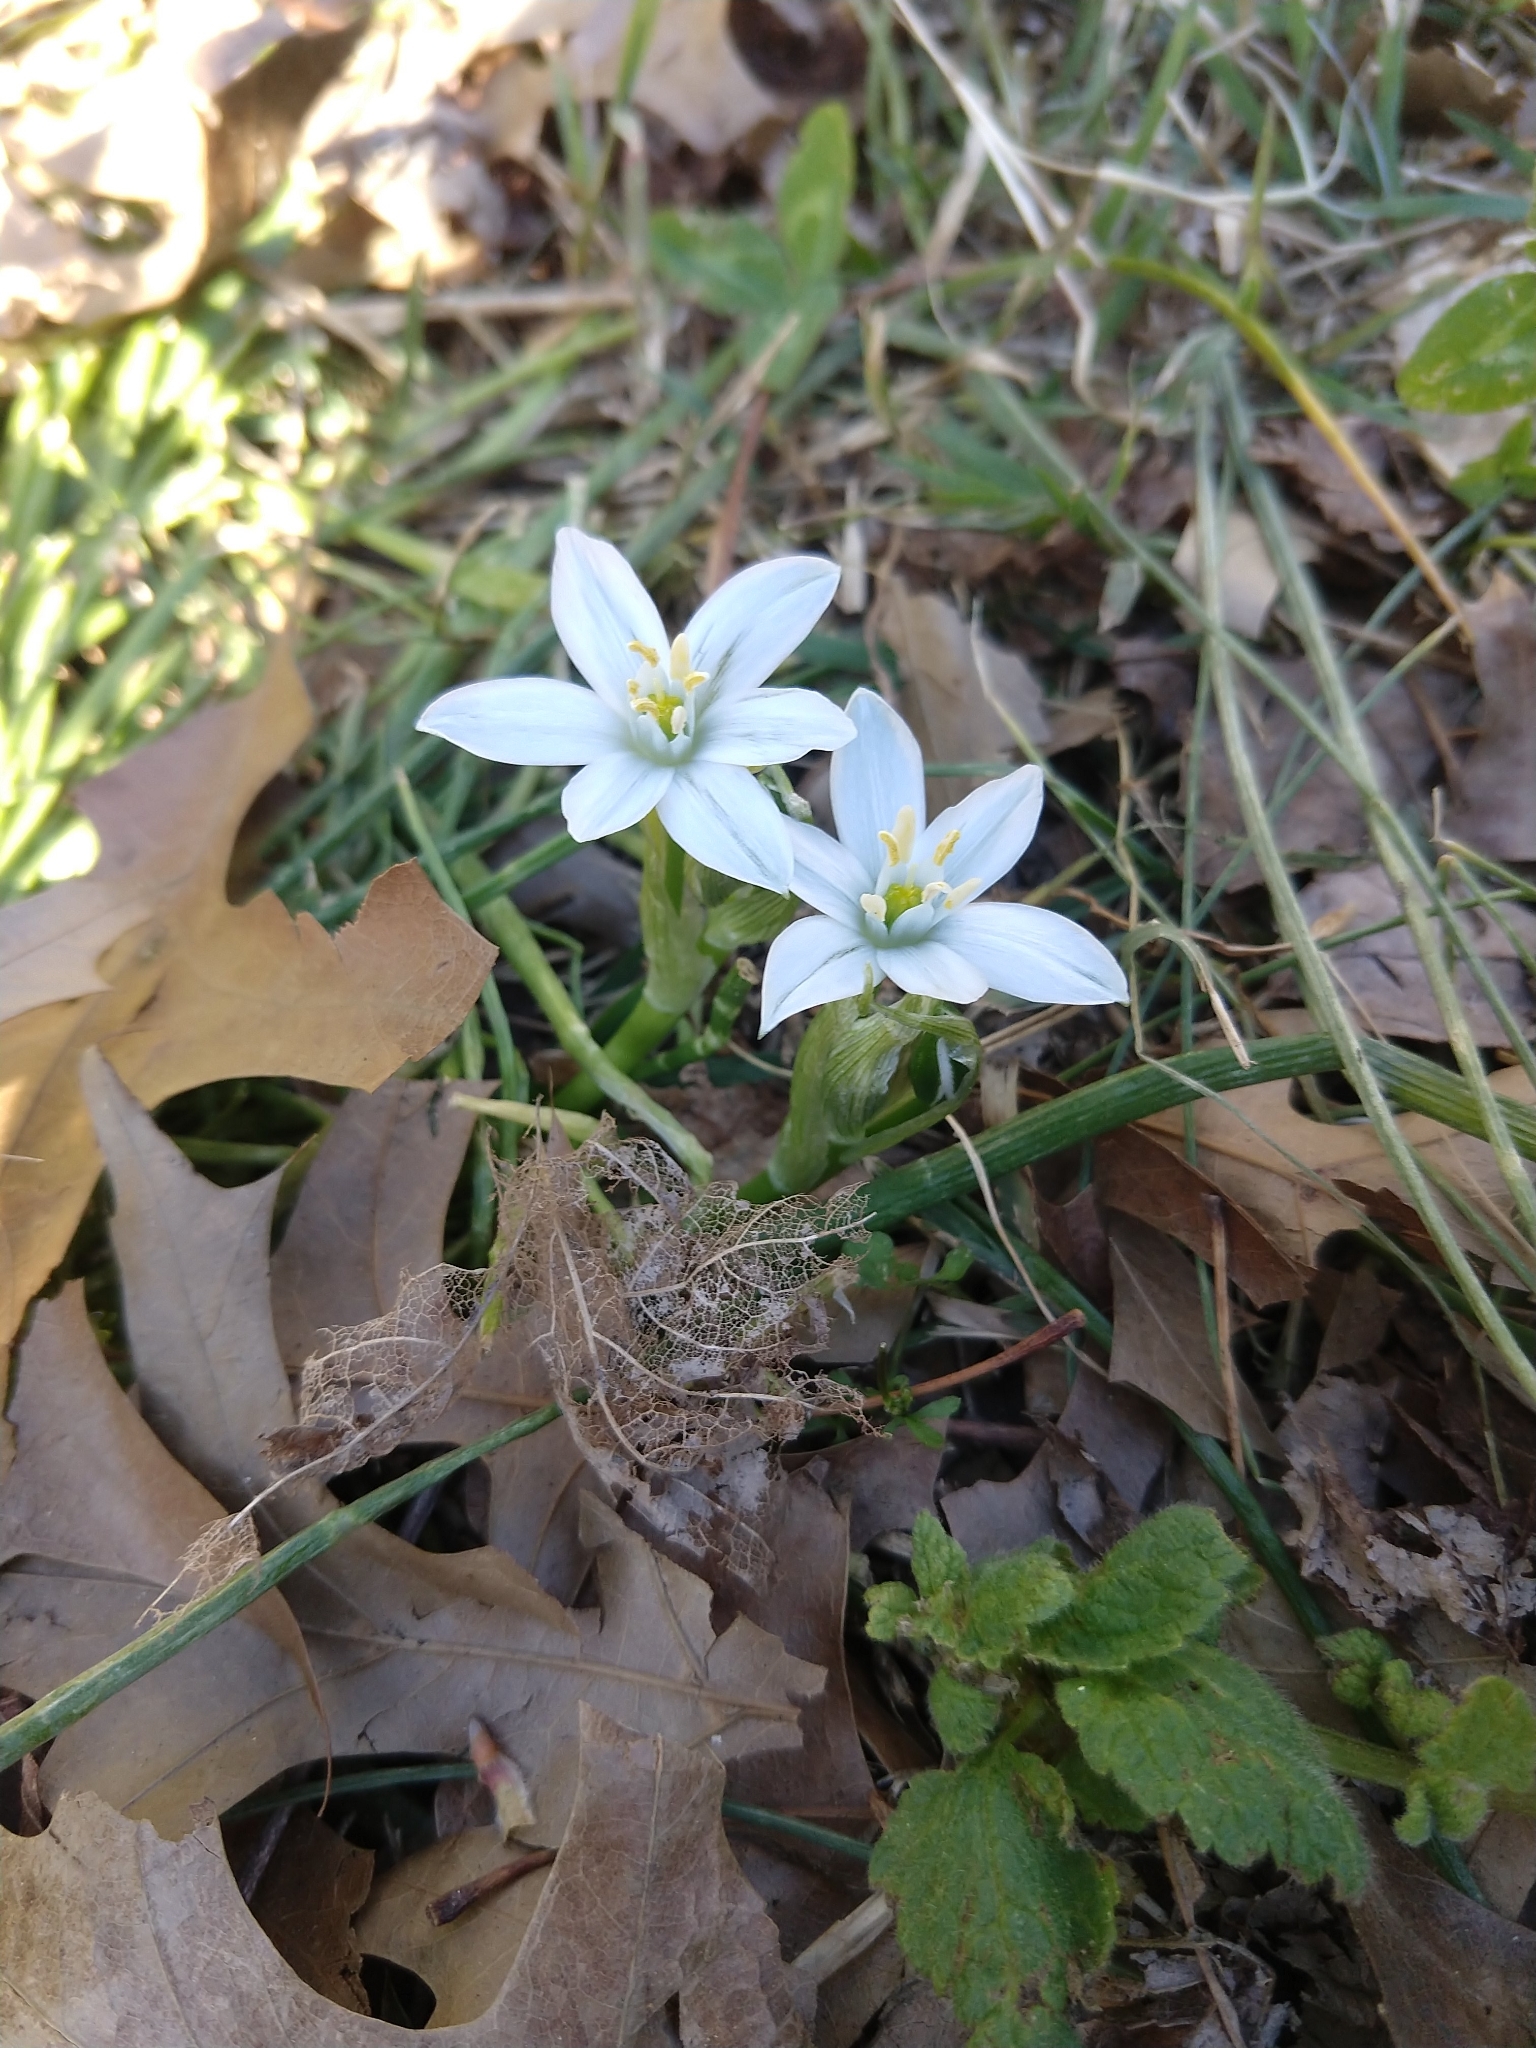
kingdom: Plantae
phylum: Tracheophyta
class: Liliopsida
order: Asparagales
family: Asparagaceae
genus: Ornithogalum
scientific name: Ornithogalum umbellatum
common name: Garden star-of-bethlehem
